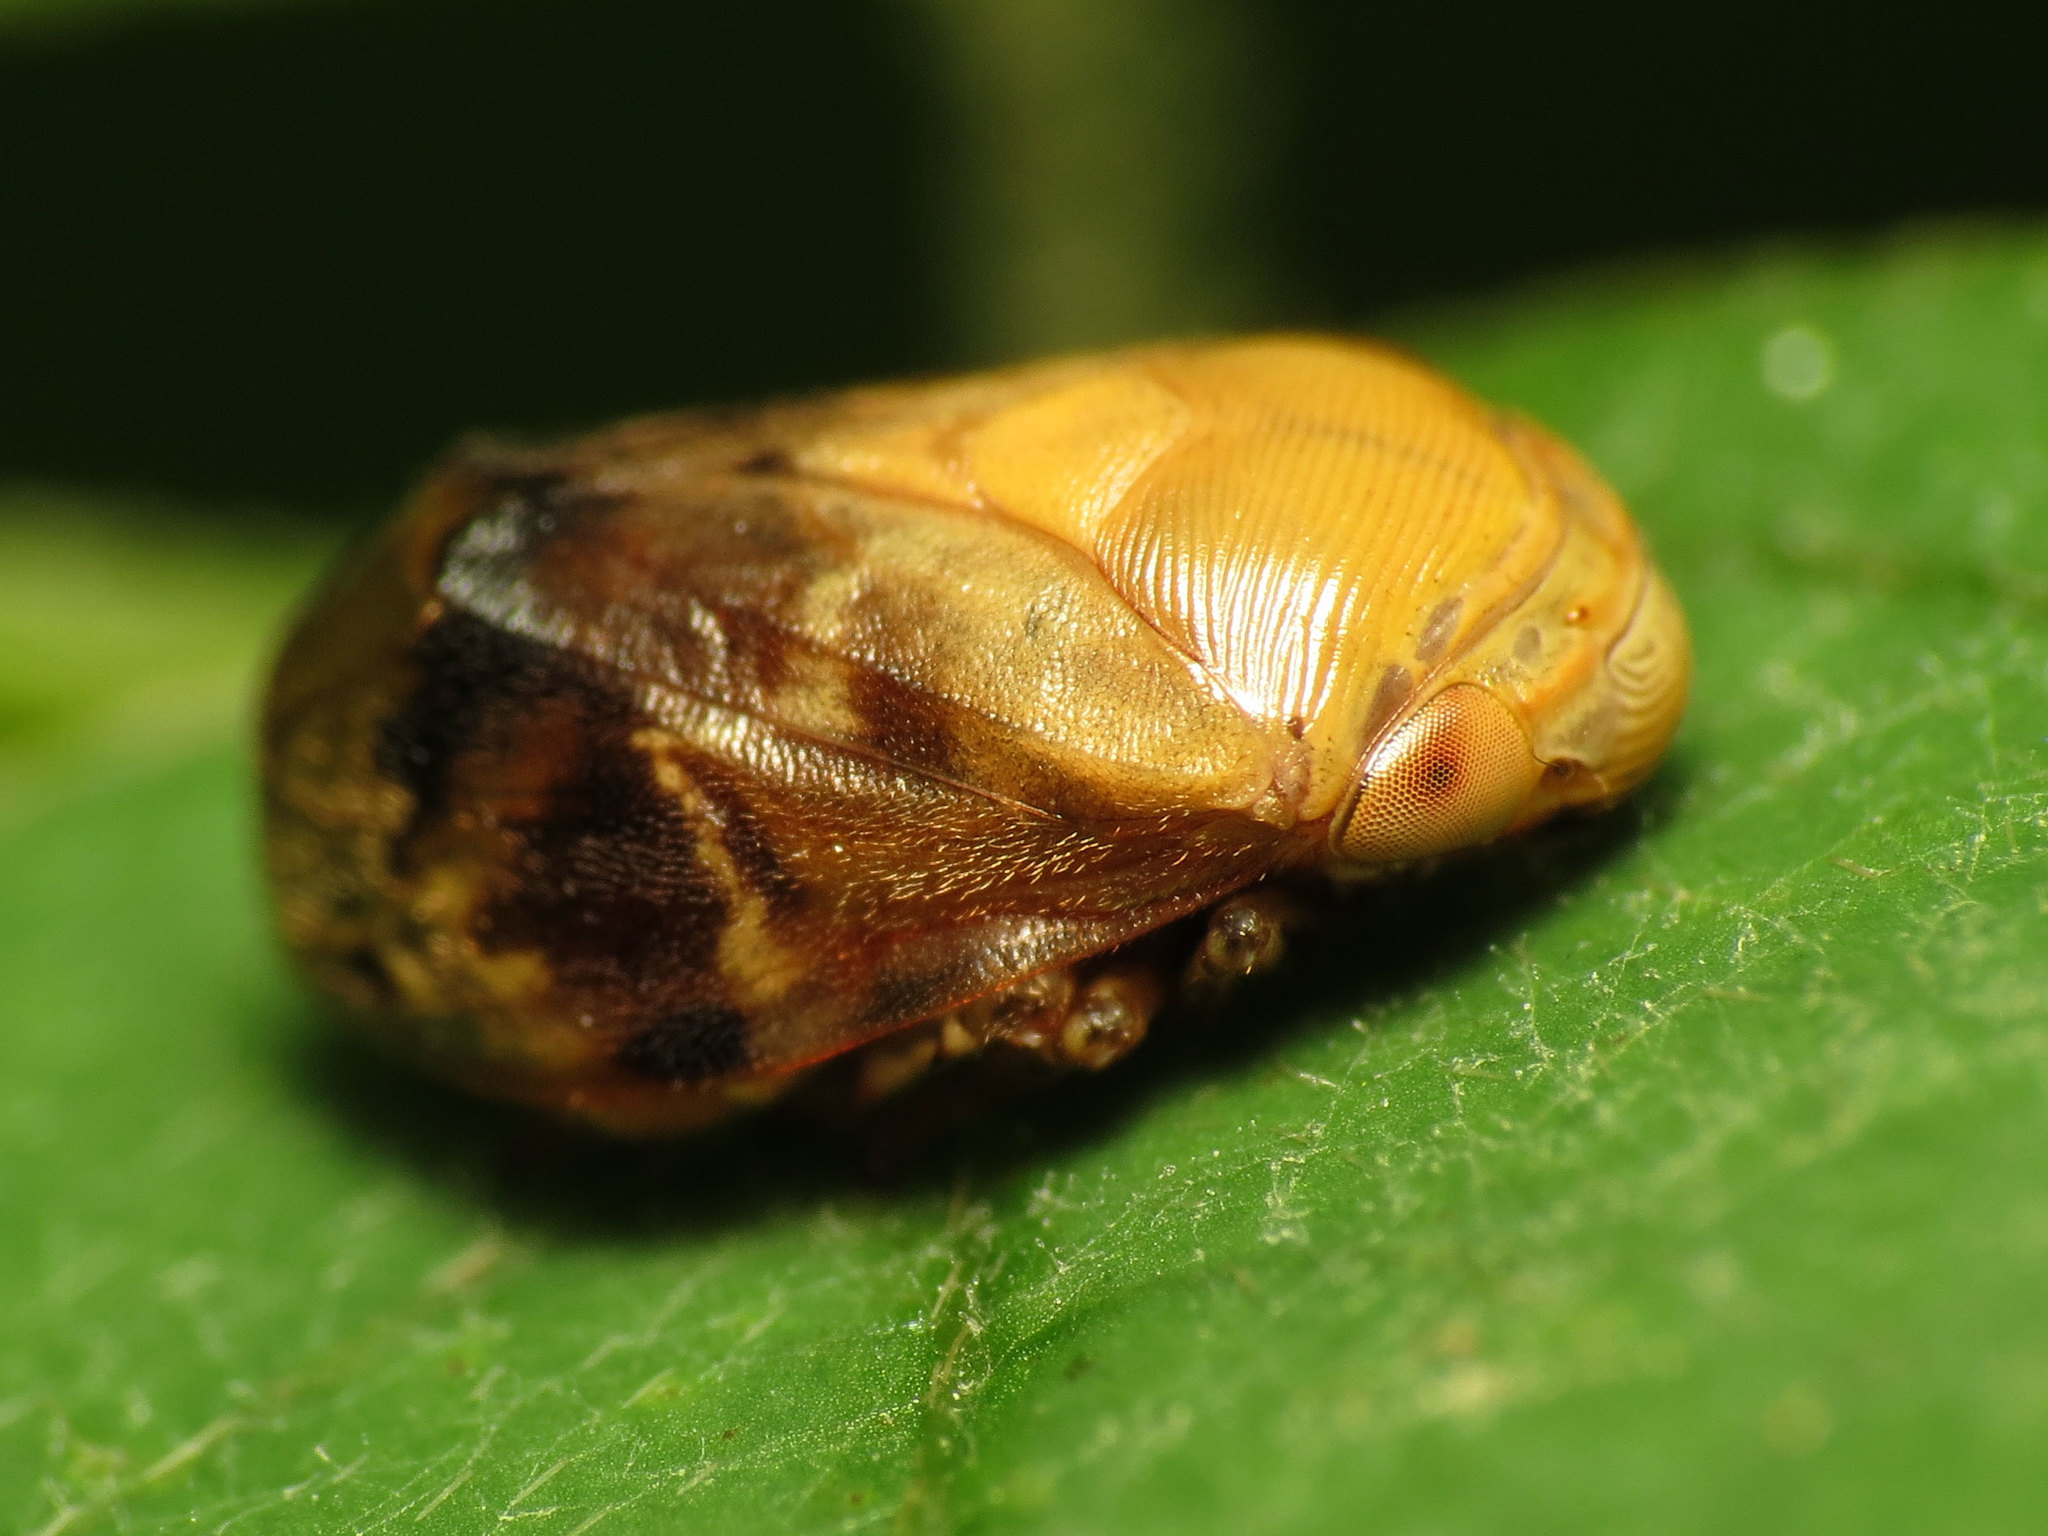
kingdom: Animalia
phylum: Arthropoda
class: Insecta
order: Hemiptera
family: Clastopteridae
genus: Clastoptera
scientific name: Clastoptera achatina
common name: Pecan spittlebug
